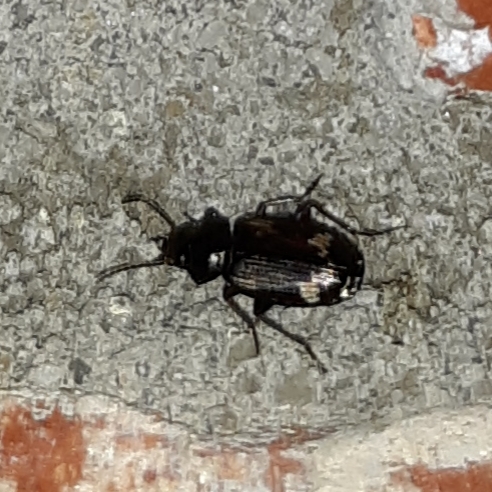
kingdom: Animalia
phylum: Arthropoda
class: Insecta
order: Coleoptera
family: Carabidae
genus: Tetragonoderus
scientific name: Tetragonoderus intersectus
